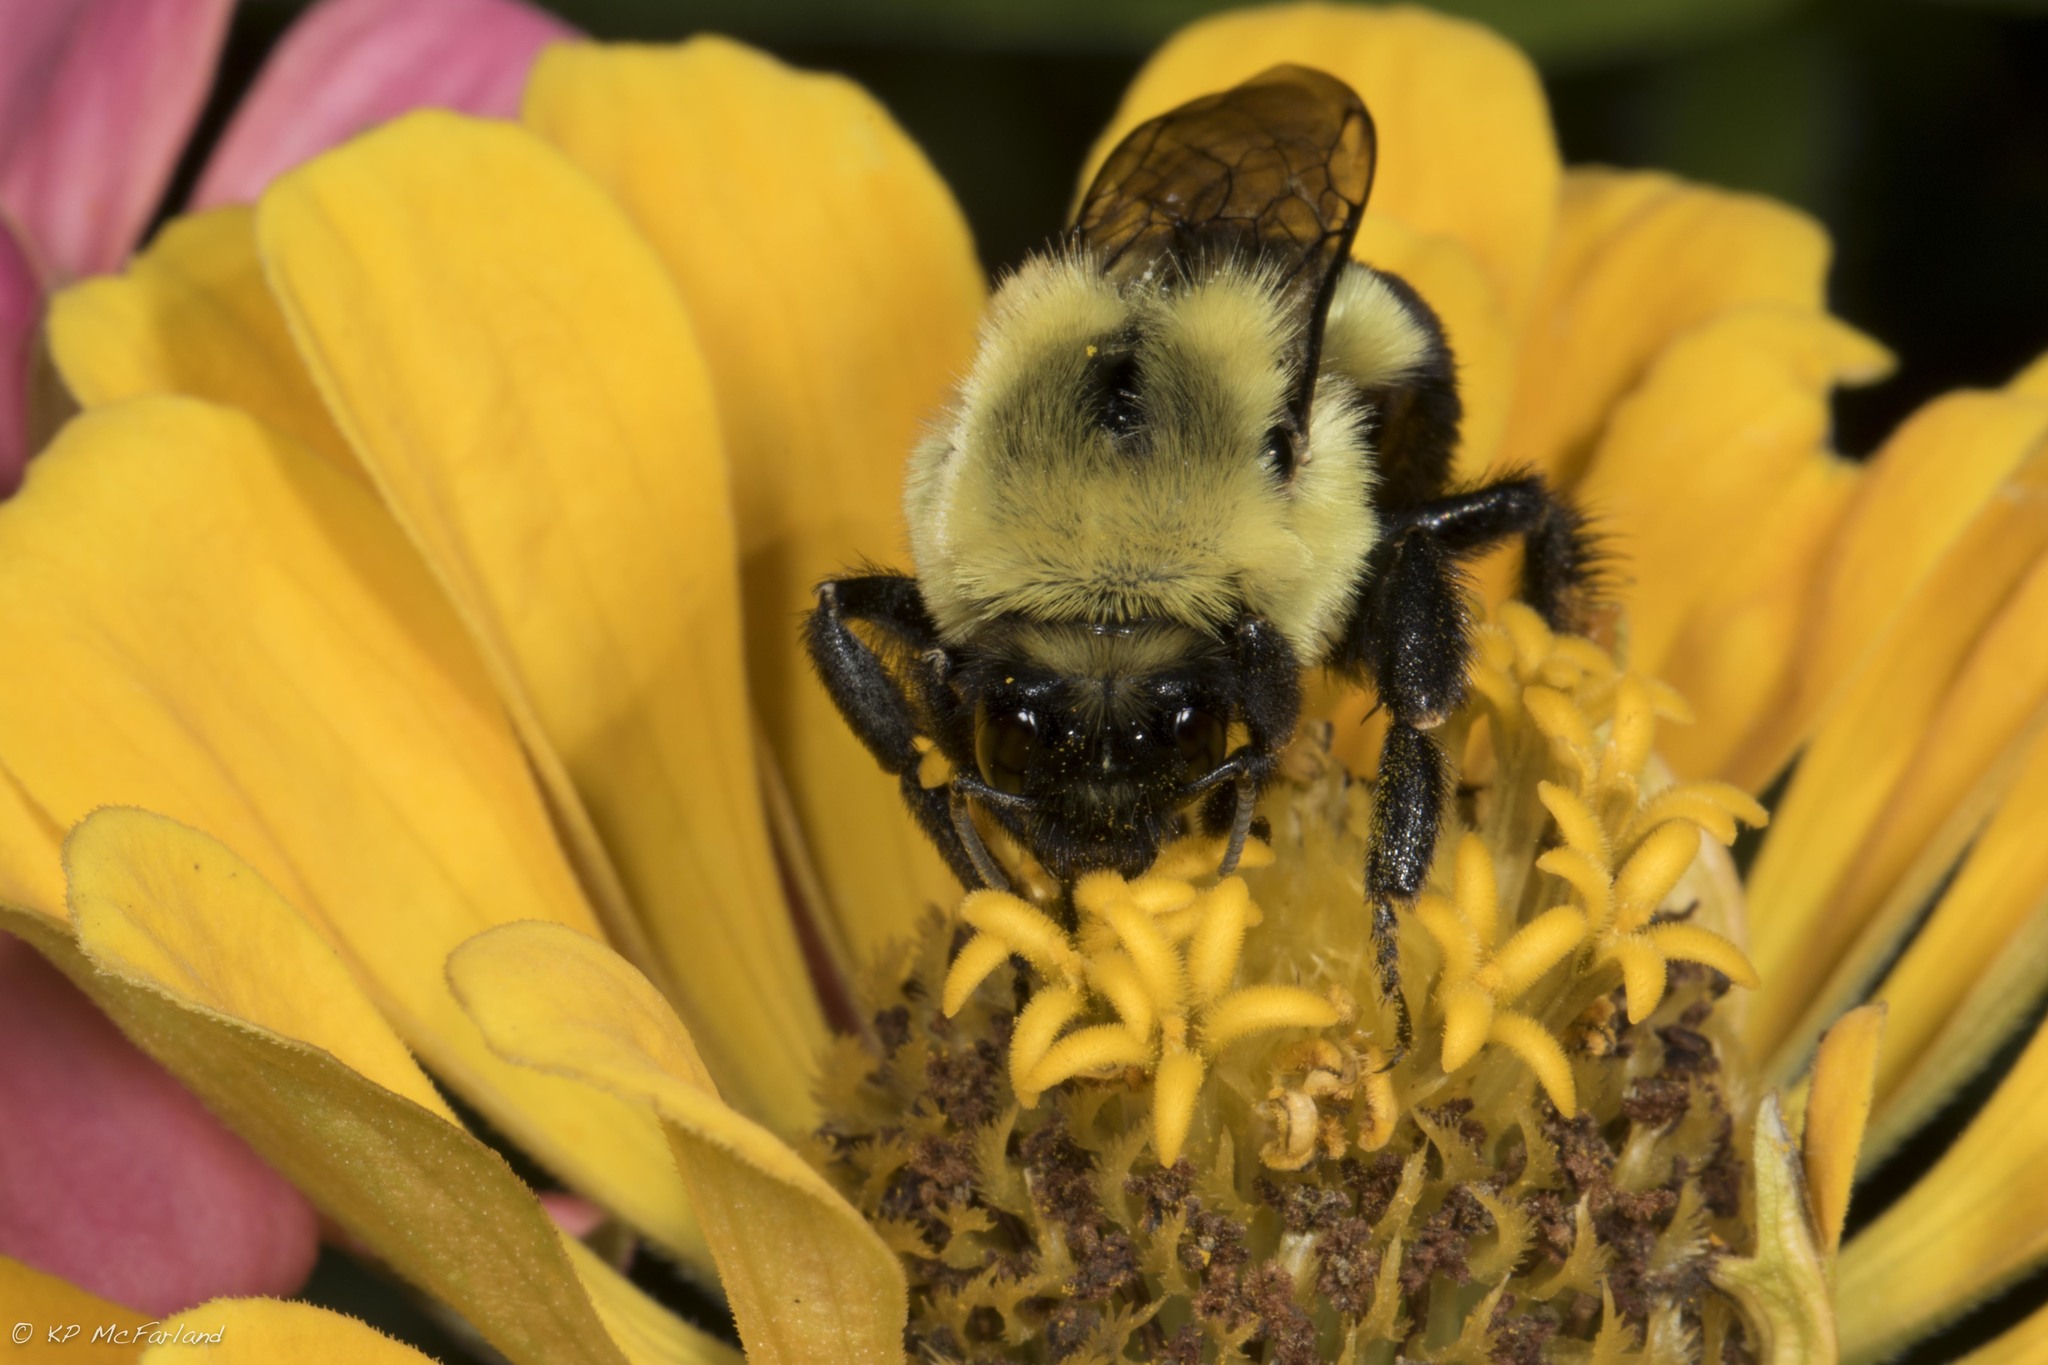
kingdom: Animalia
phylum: Arthropoda
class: Insecta
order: Hymenoptera
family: Apidae
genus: Bombus
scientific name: Bombus impatiens
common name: Common eastern bumble bee
